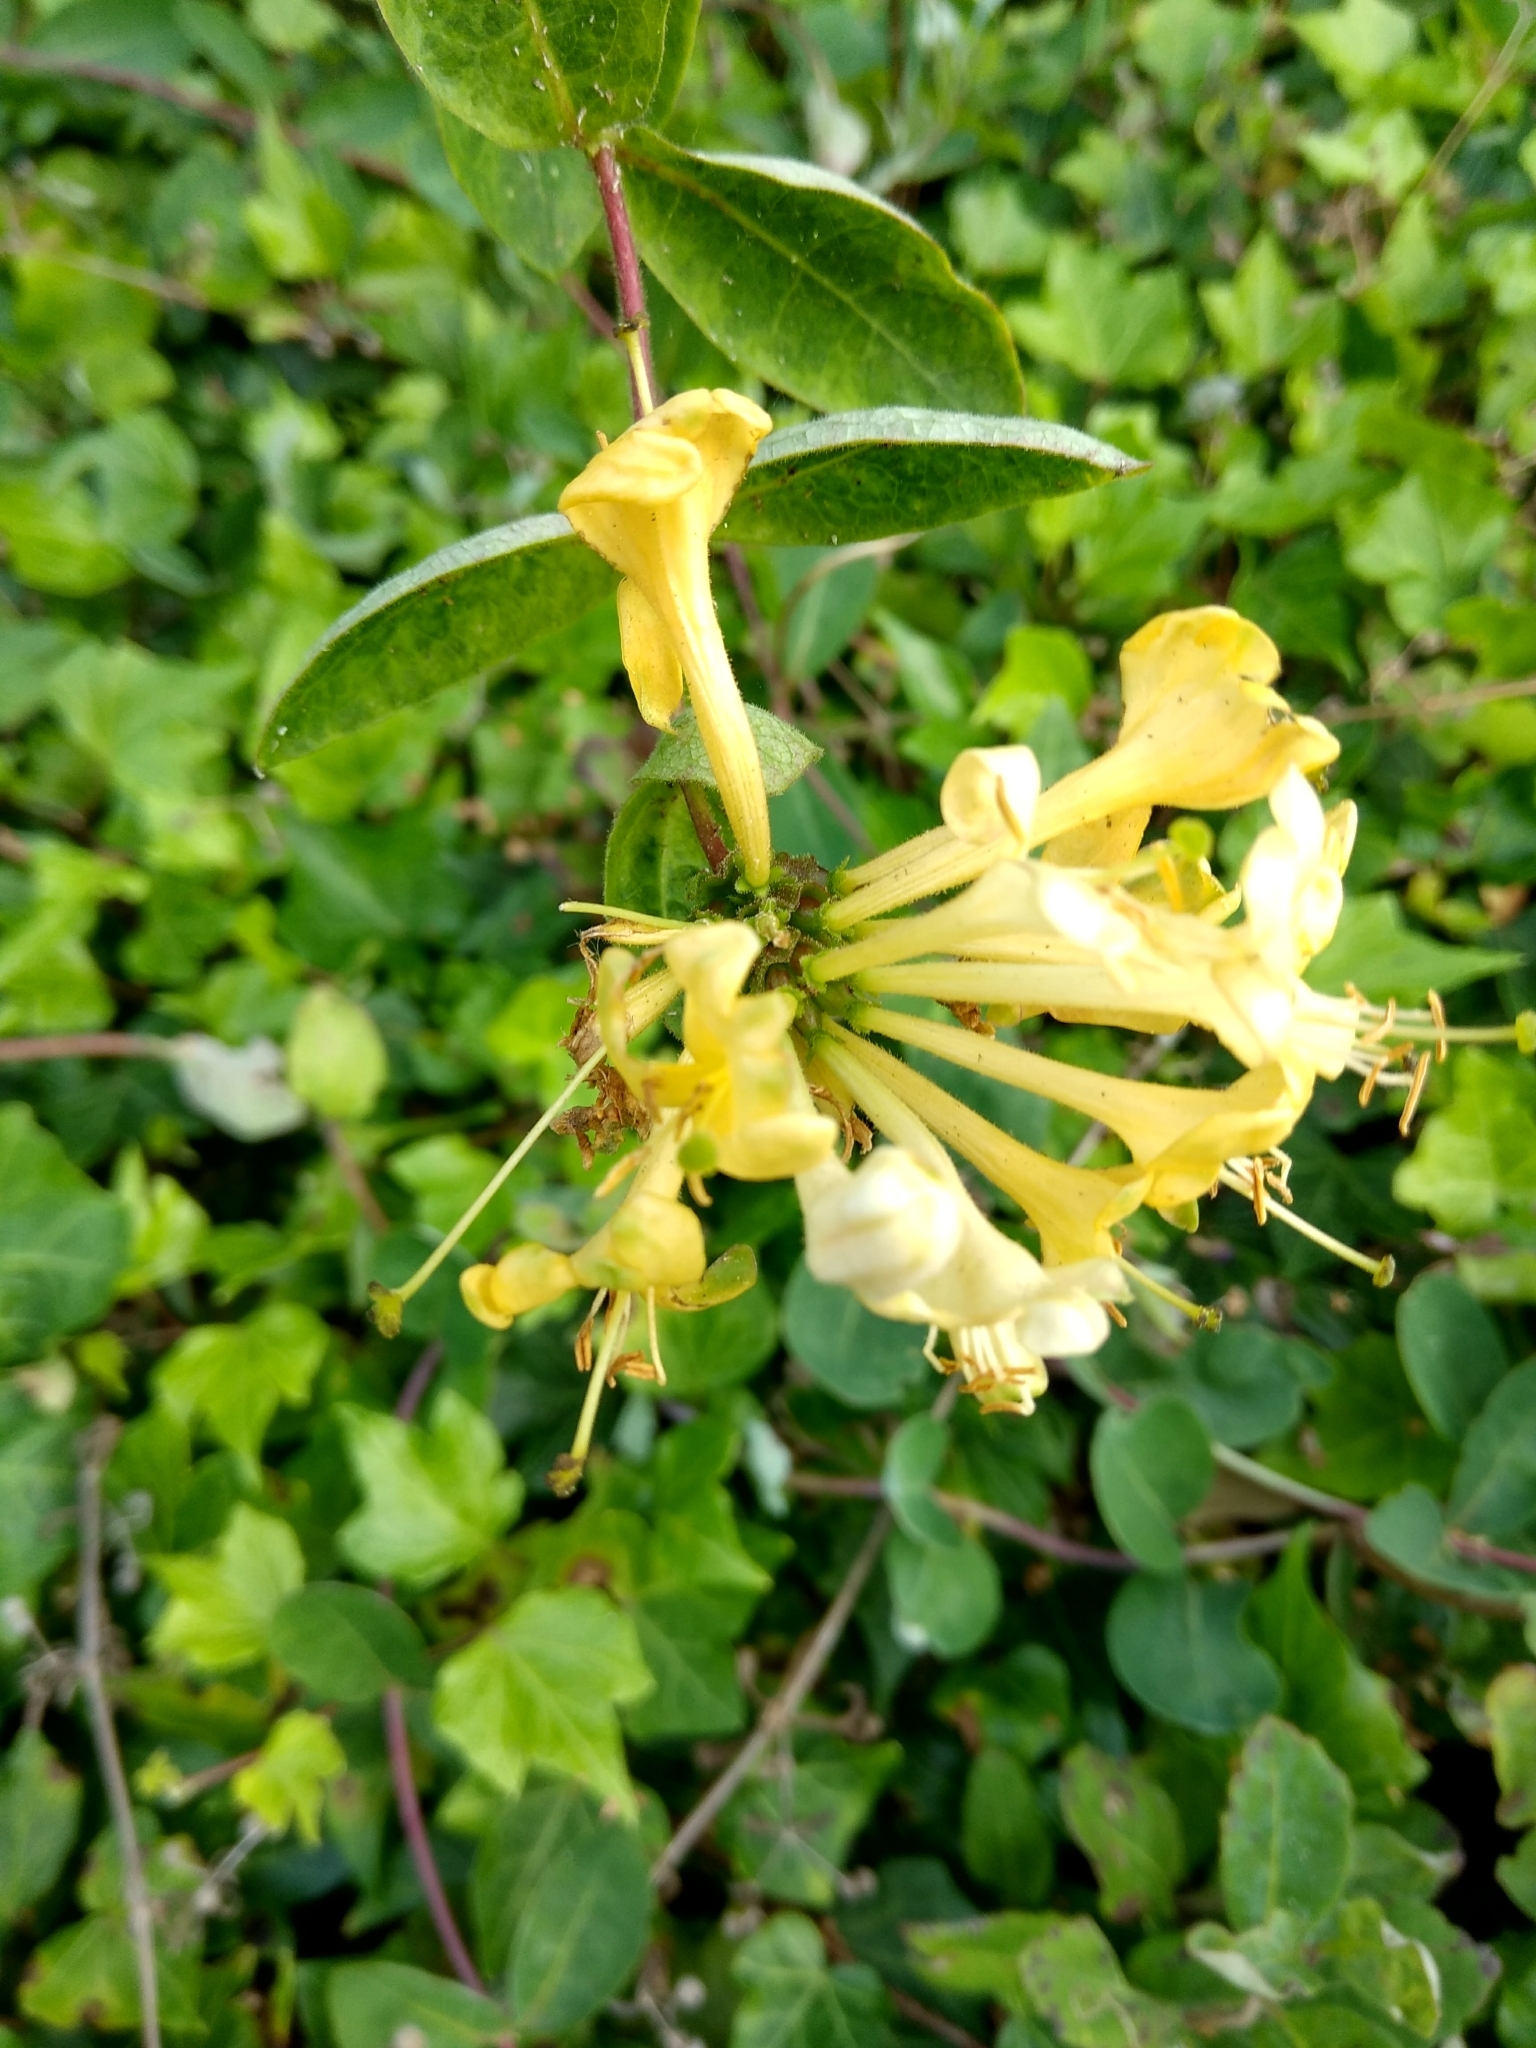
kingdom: Plantae
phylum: Tracheophyta
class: Magnoliopsida
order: Dipsacales
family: Caprifoliaceae
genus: Lonicera
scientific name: Lonicera periclymenum
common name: European honeysuckle
